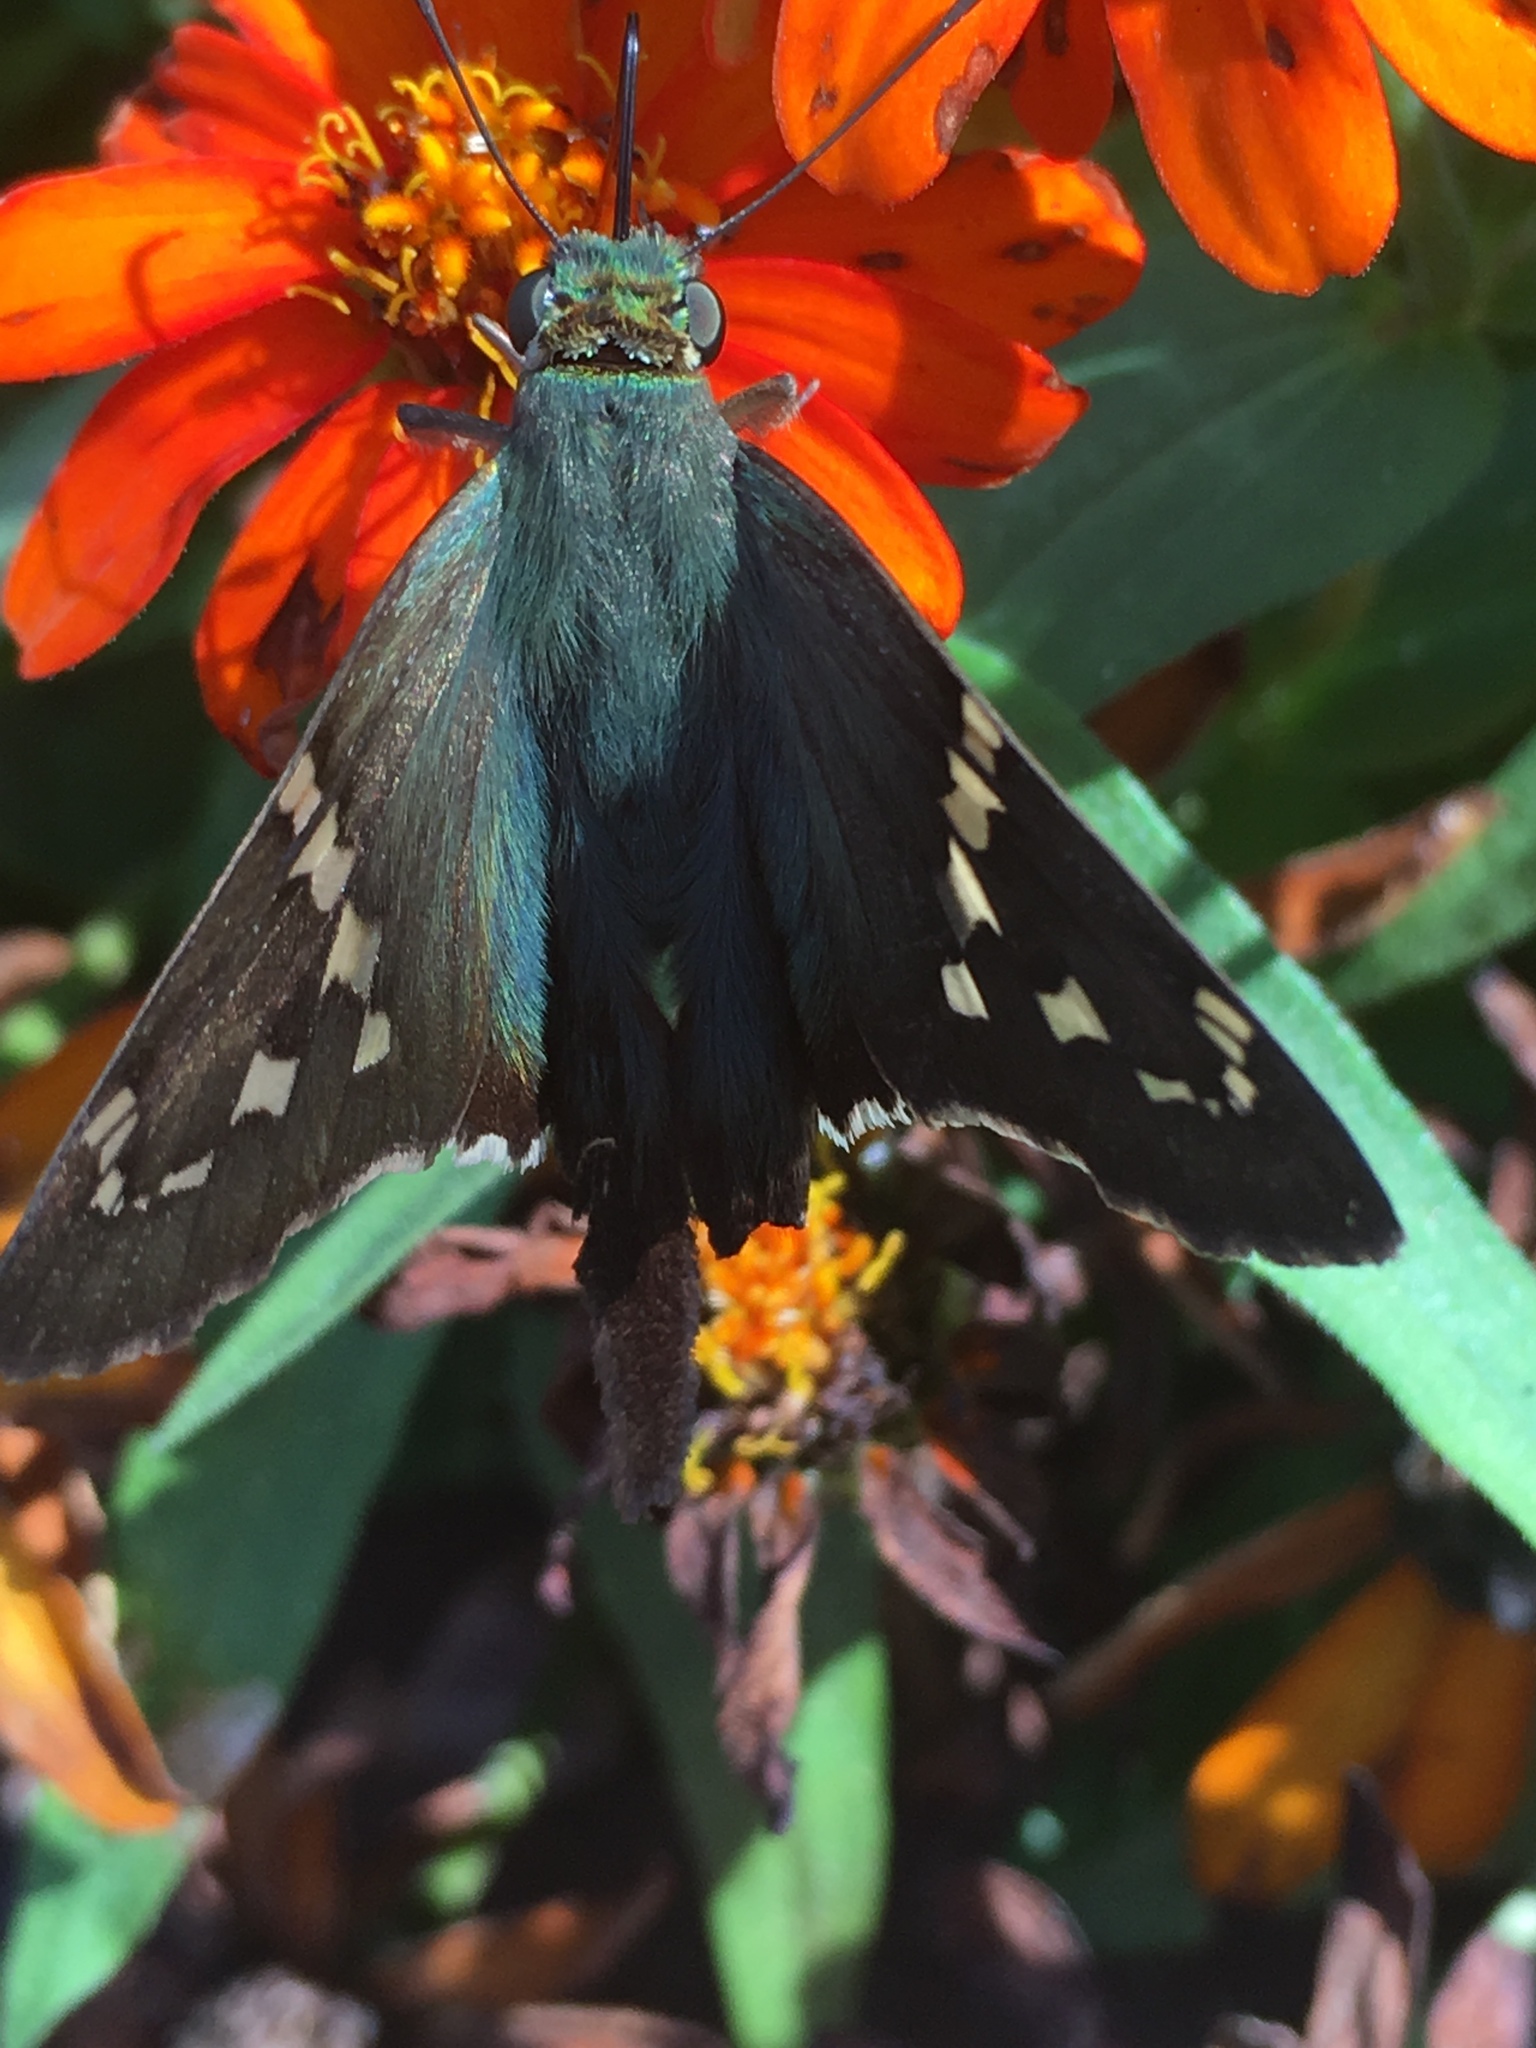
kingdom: Animalia
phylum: Arthropoda
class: Insecta
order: Lepidoptera
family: Hesperiidae
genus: Urbanus
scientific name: Urbanus proteus
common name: Long-tailed skipper
